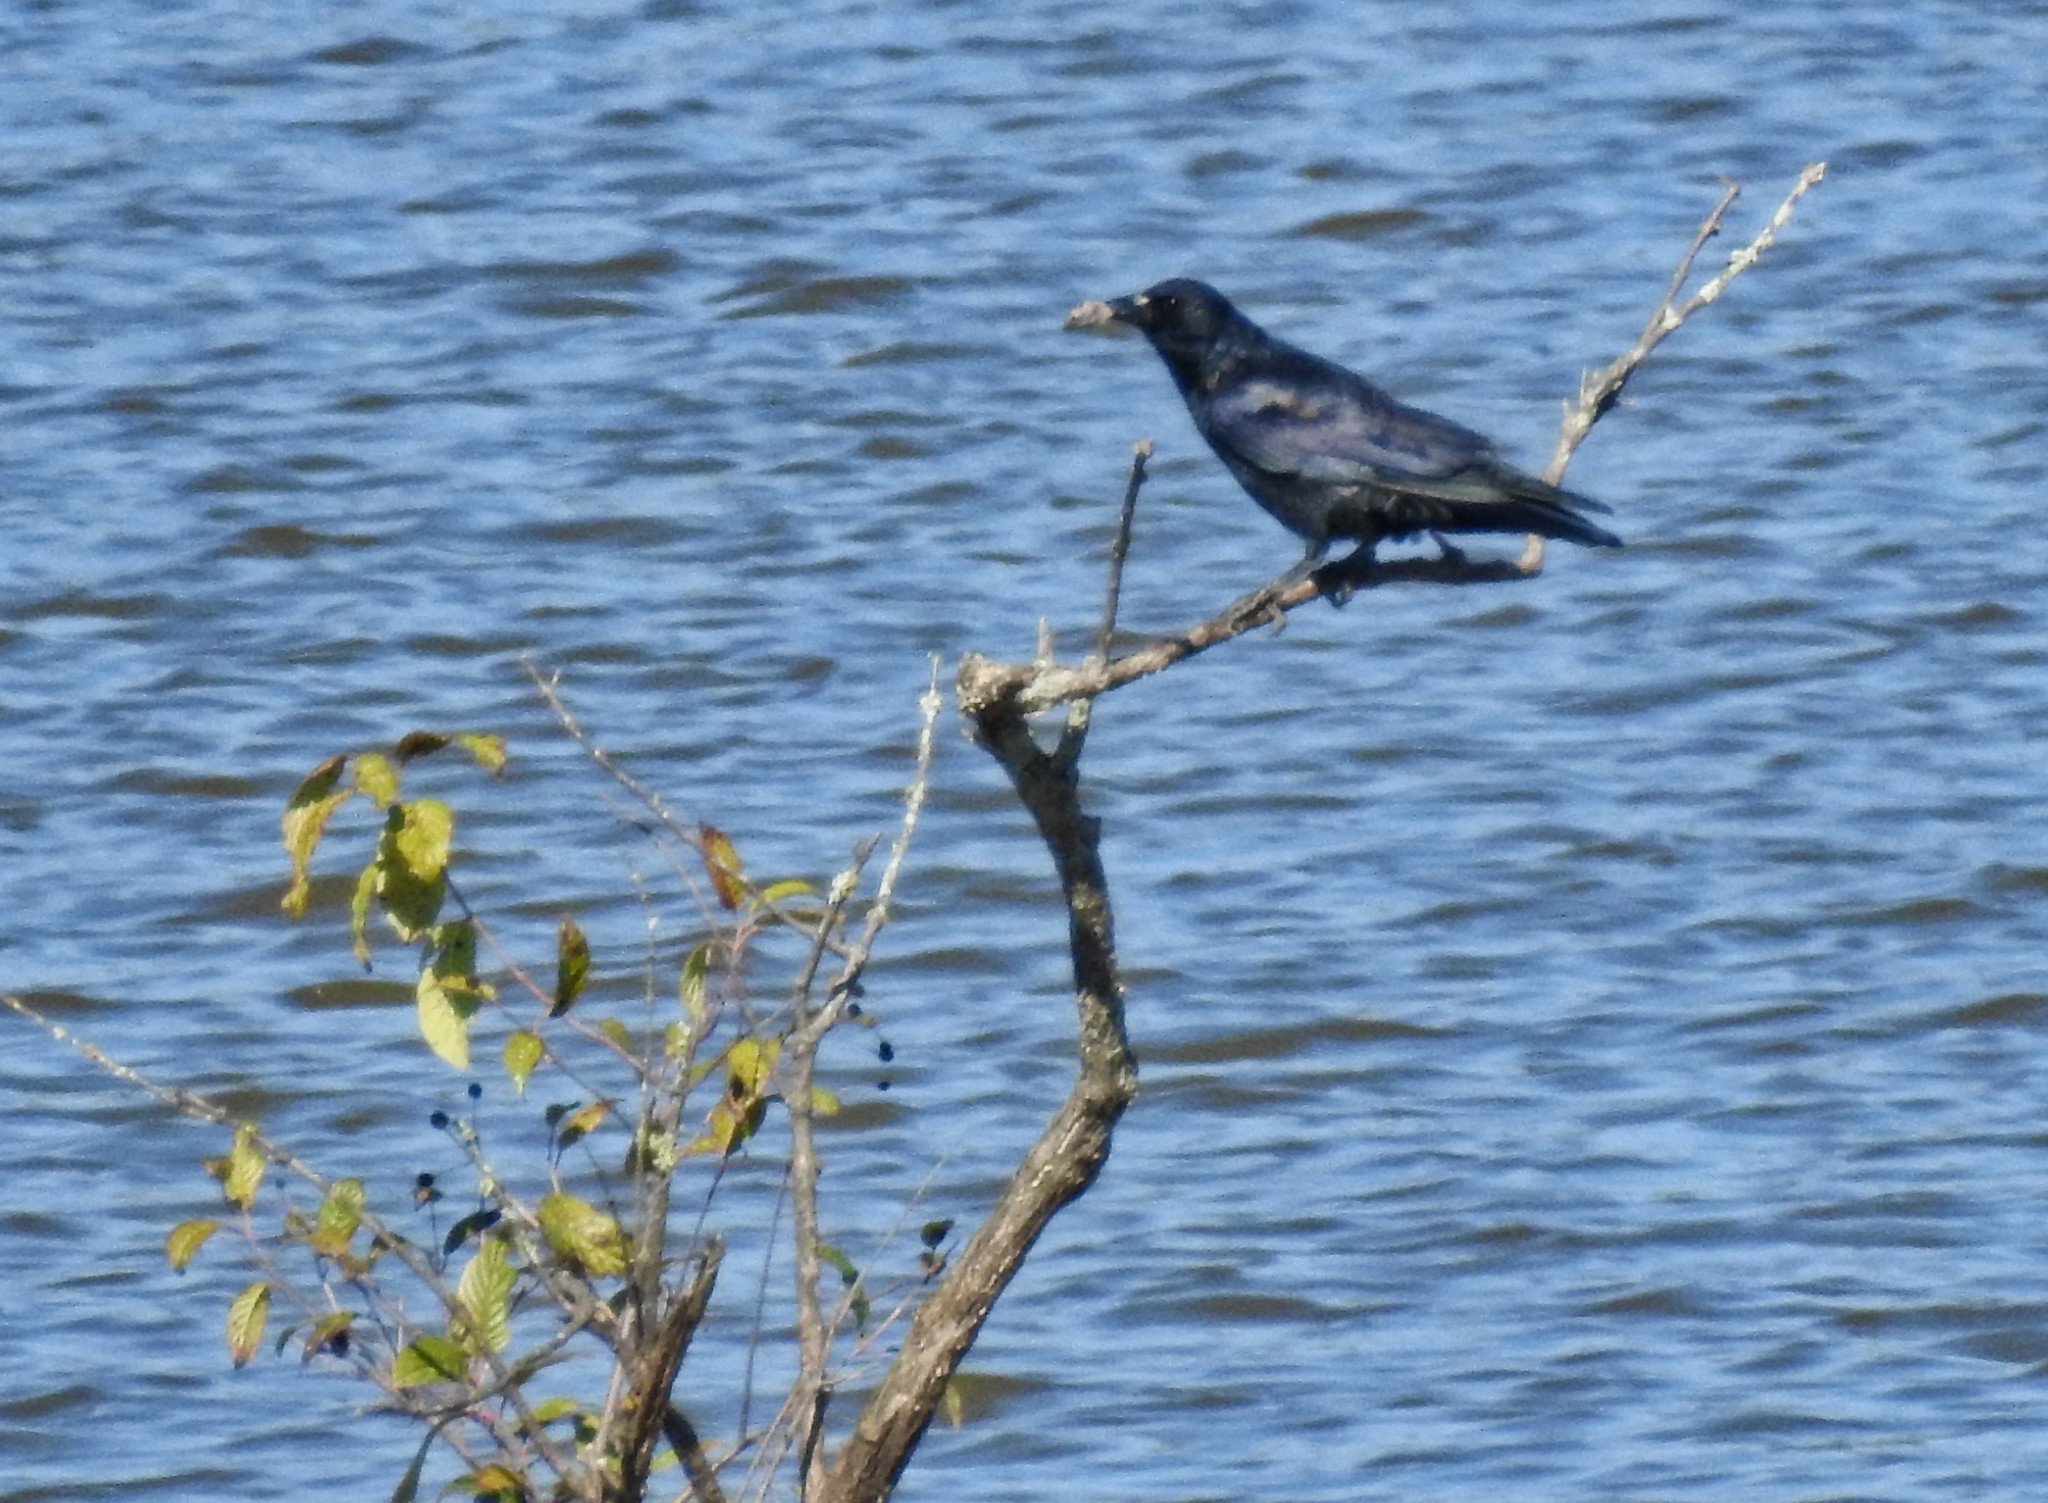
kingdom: Animalia
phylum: Chordata
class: Aves
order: Passeriformes
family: Corvidae
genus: Corvus
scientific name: Corvus brachyrhynchos
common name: American crow
